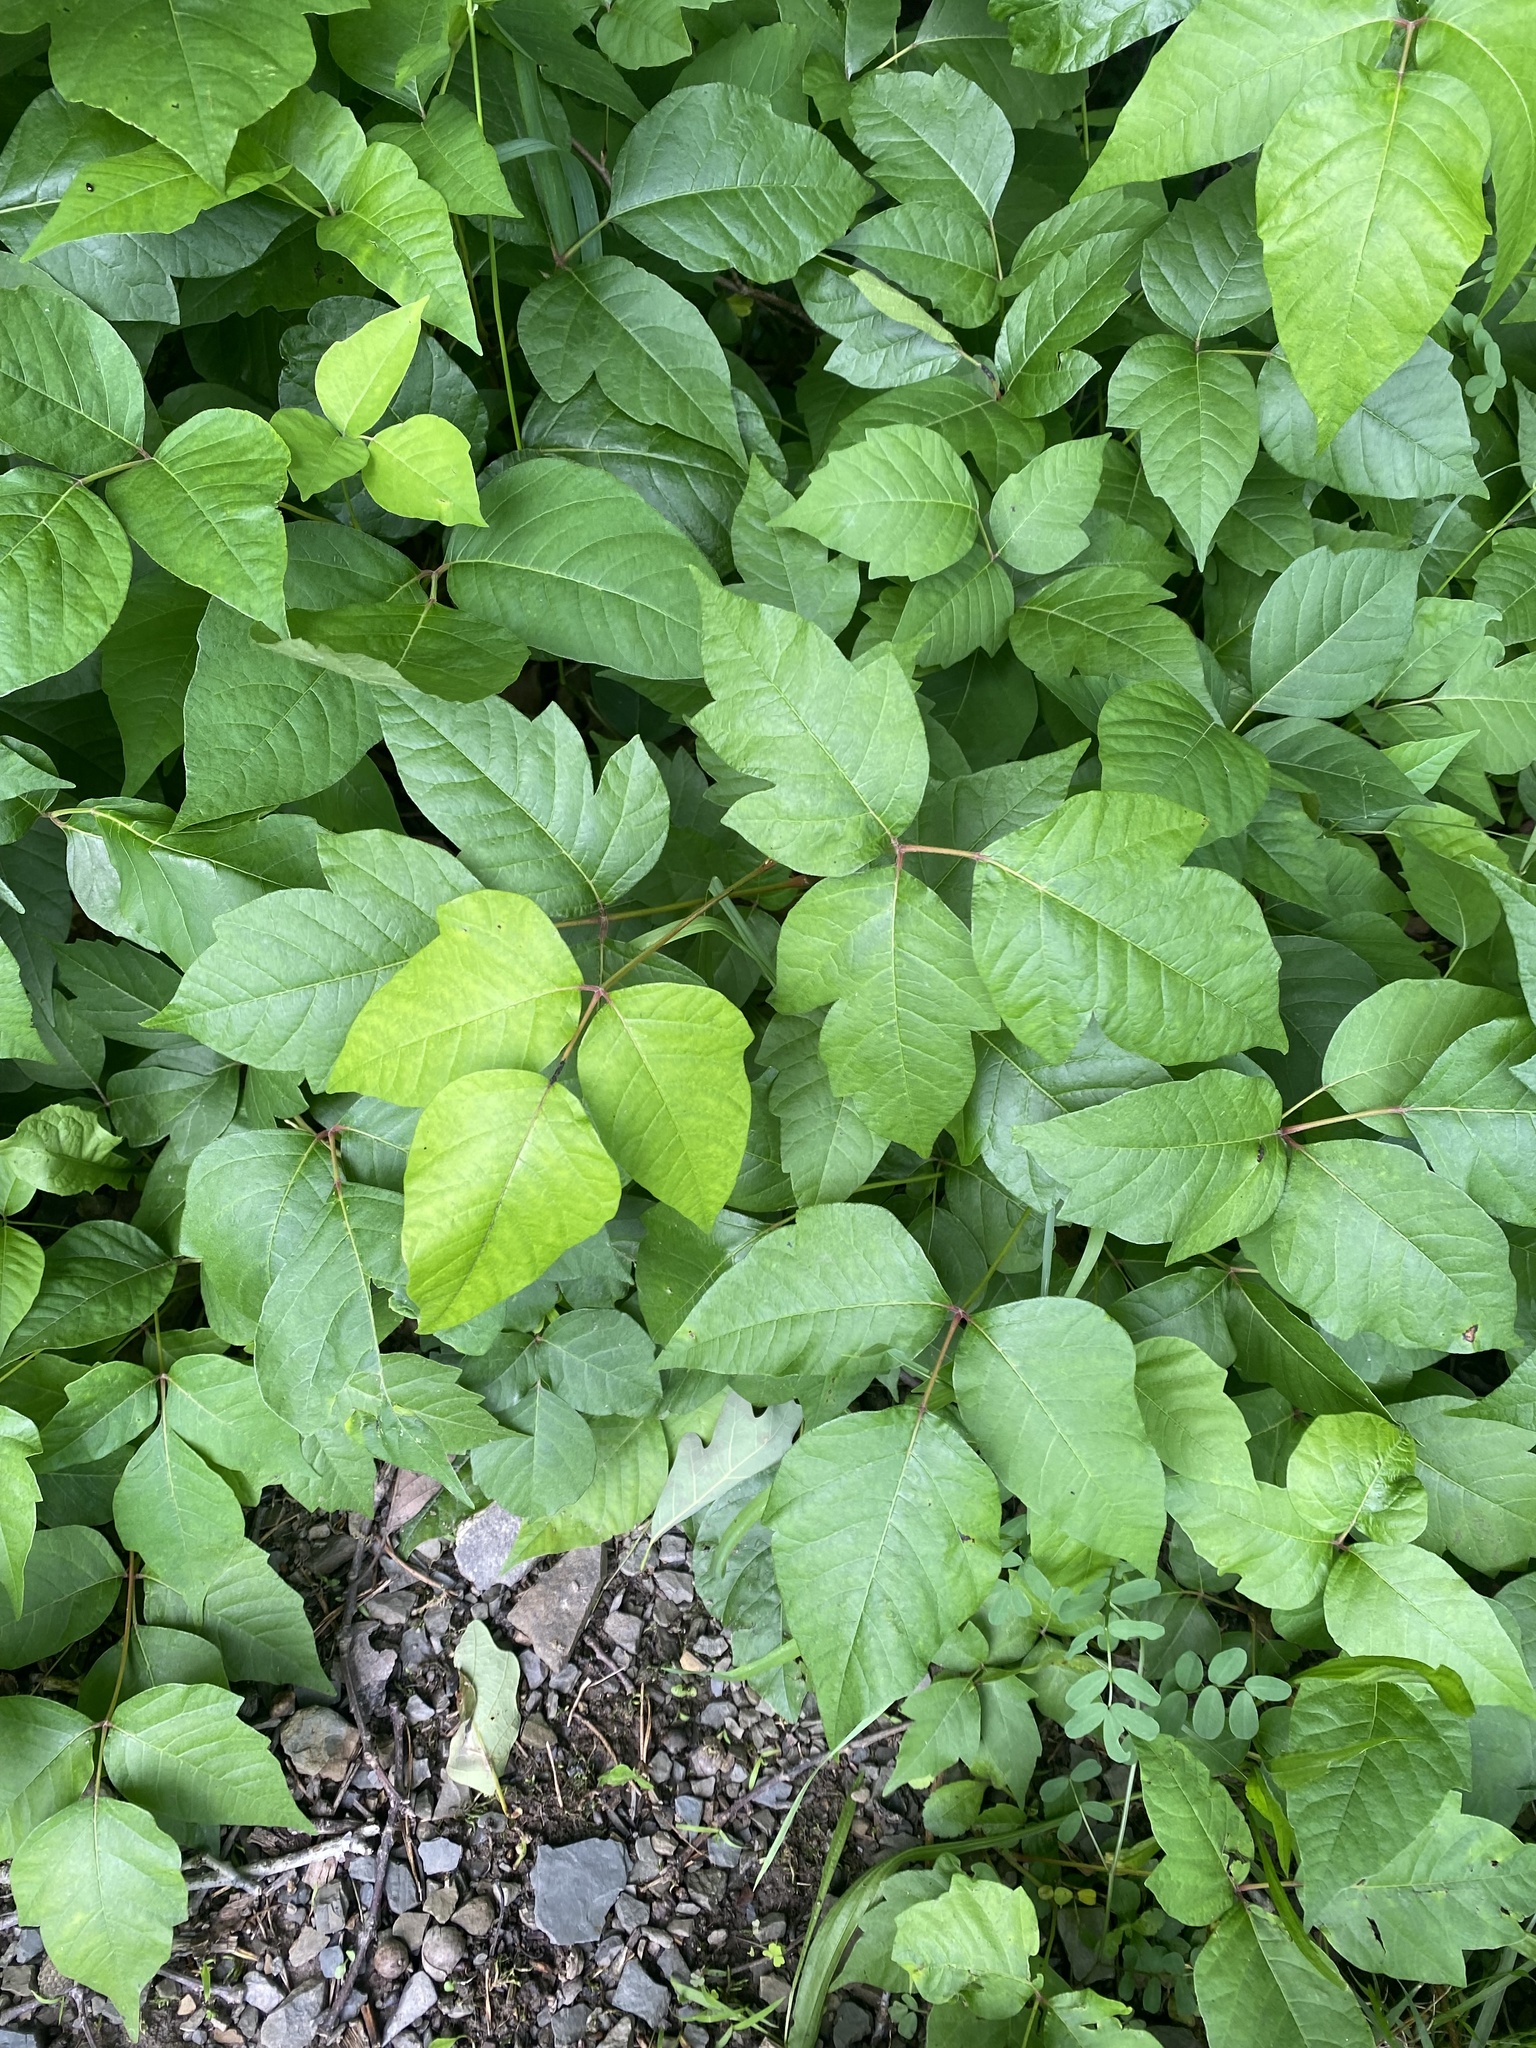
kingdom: Plantae
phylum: Tracheophyta
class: Magnoliopsida
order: Sapindales
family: Anacardiaceae
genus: Toxicodendron
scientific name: Toxicodendron radicans
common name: Poison ivy
